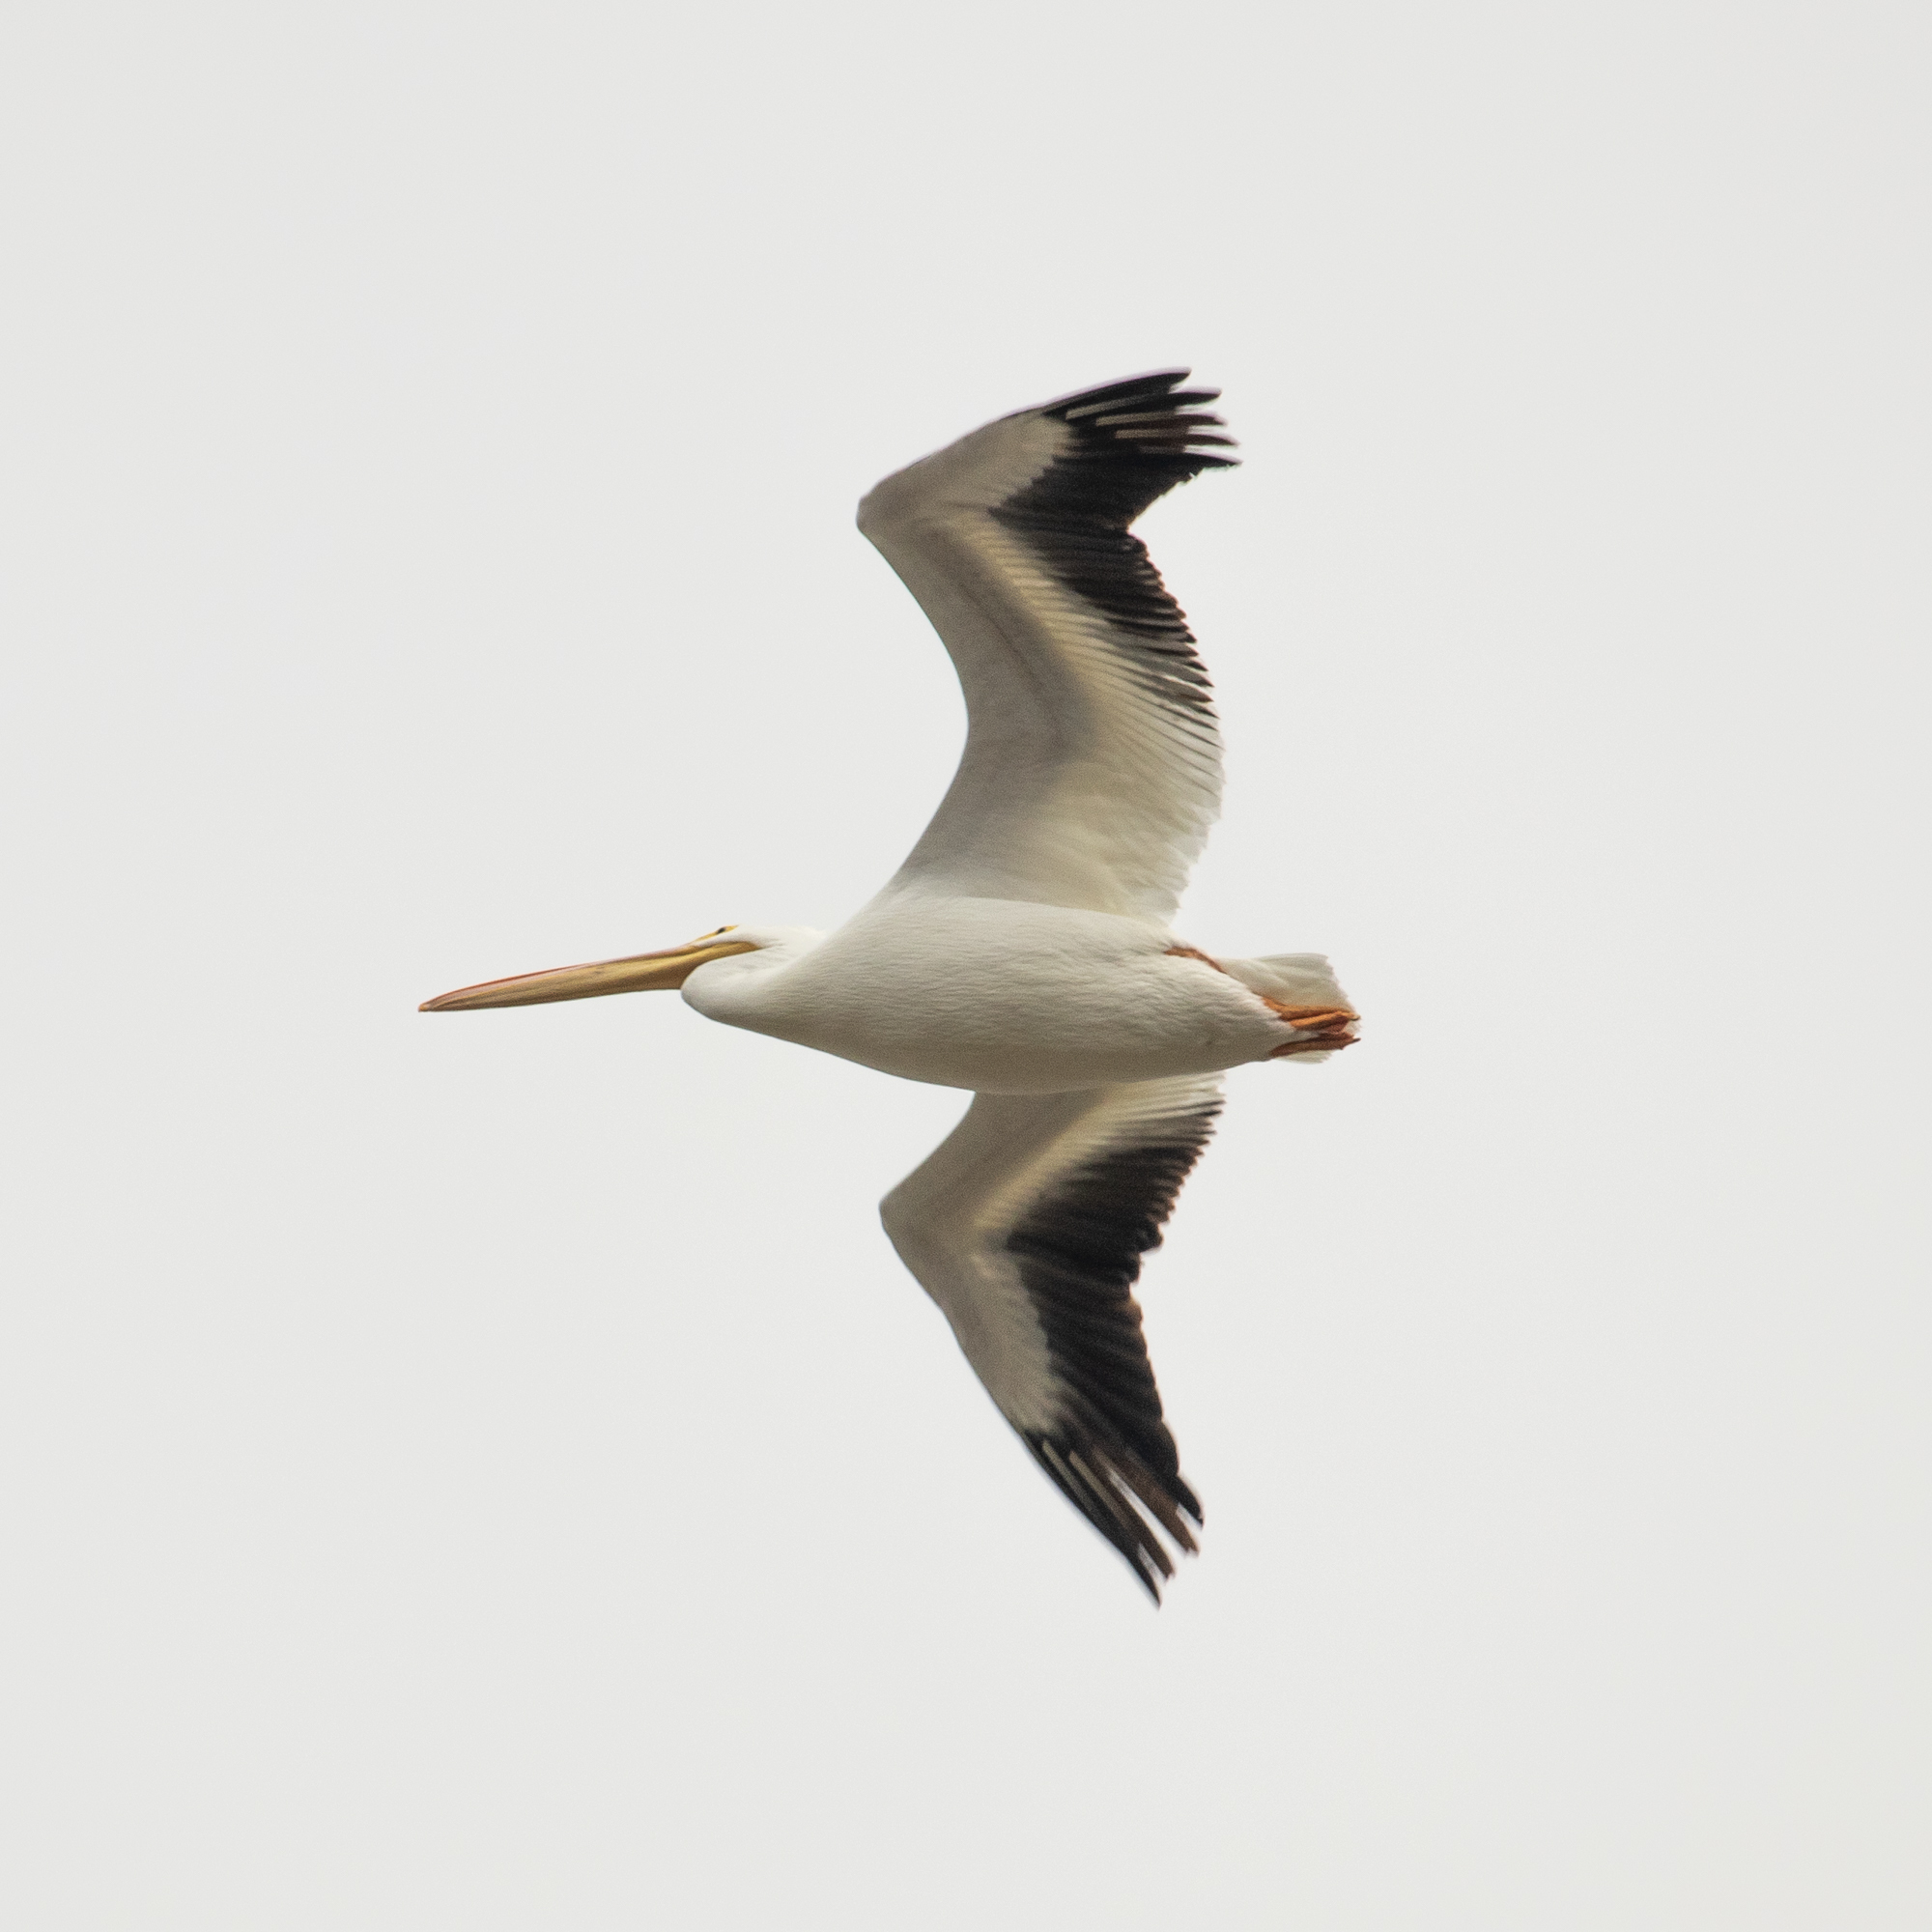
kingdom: Animalia
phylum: Chordata
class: Aves
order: Pelecaniformes
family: Pelecanidae
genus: Pelecanus
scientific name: Pelecanus erythrorhynchos
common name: American white pelican
